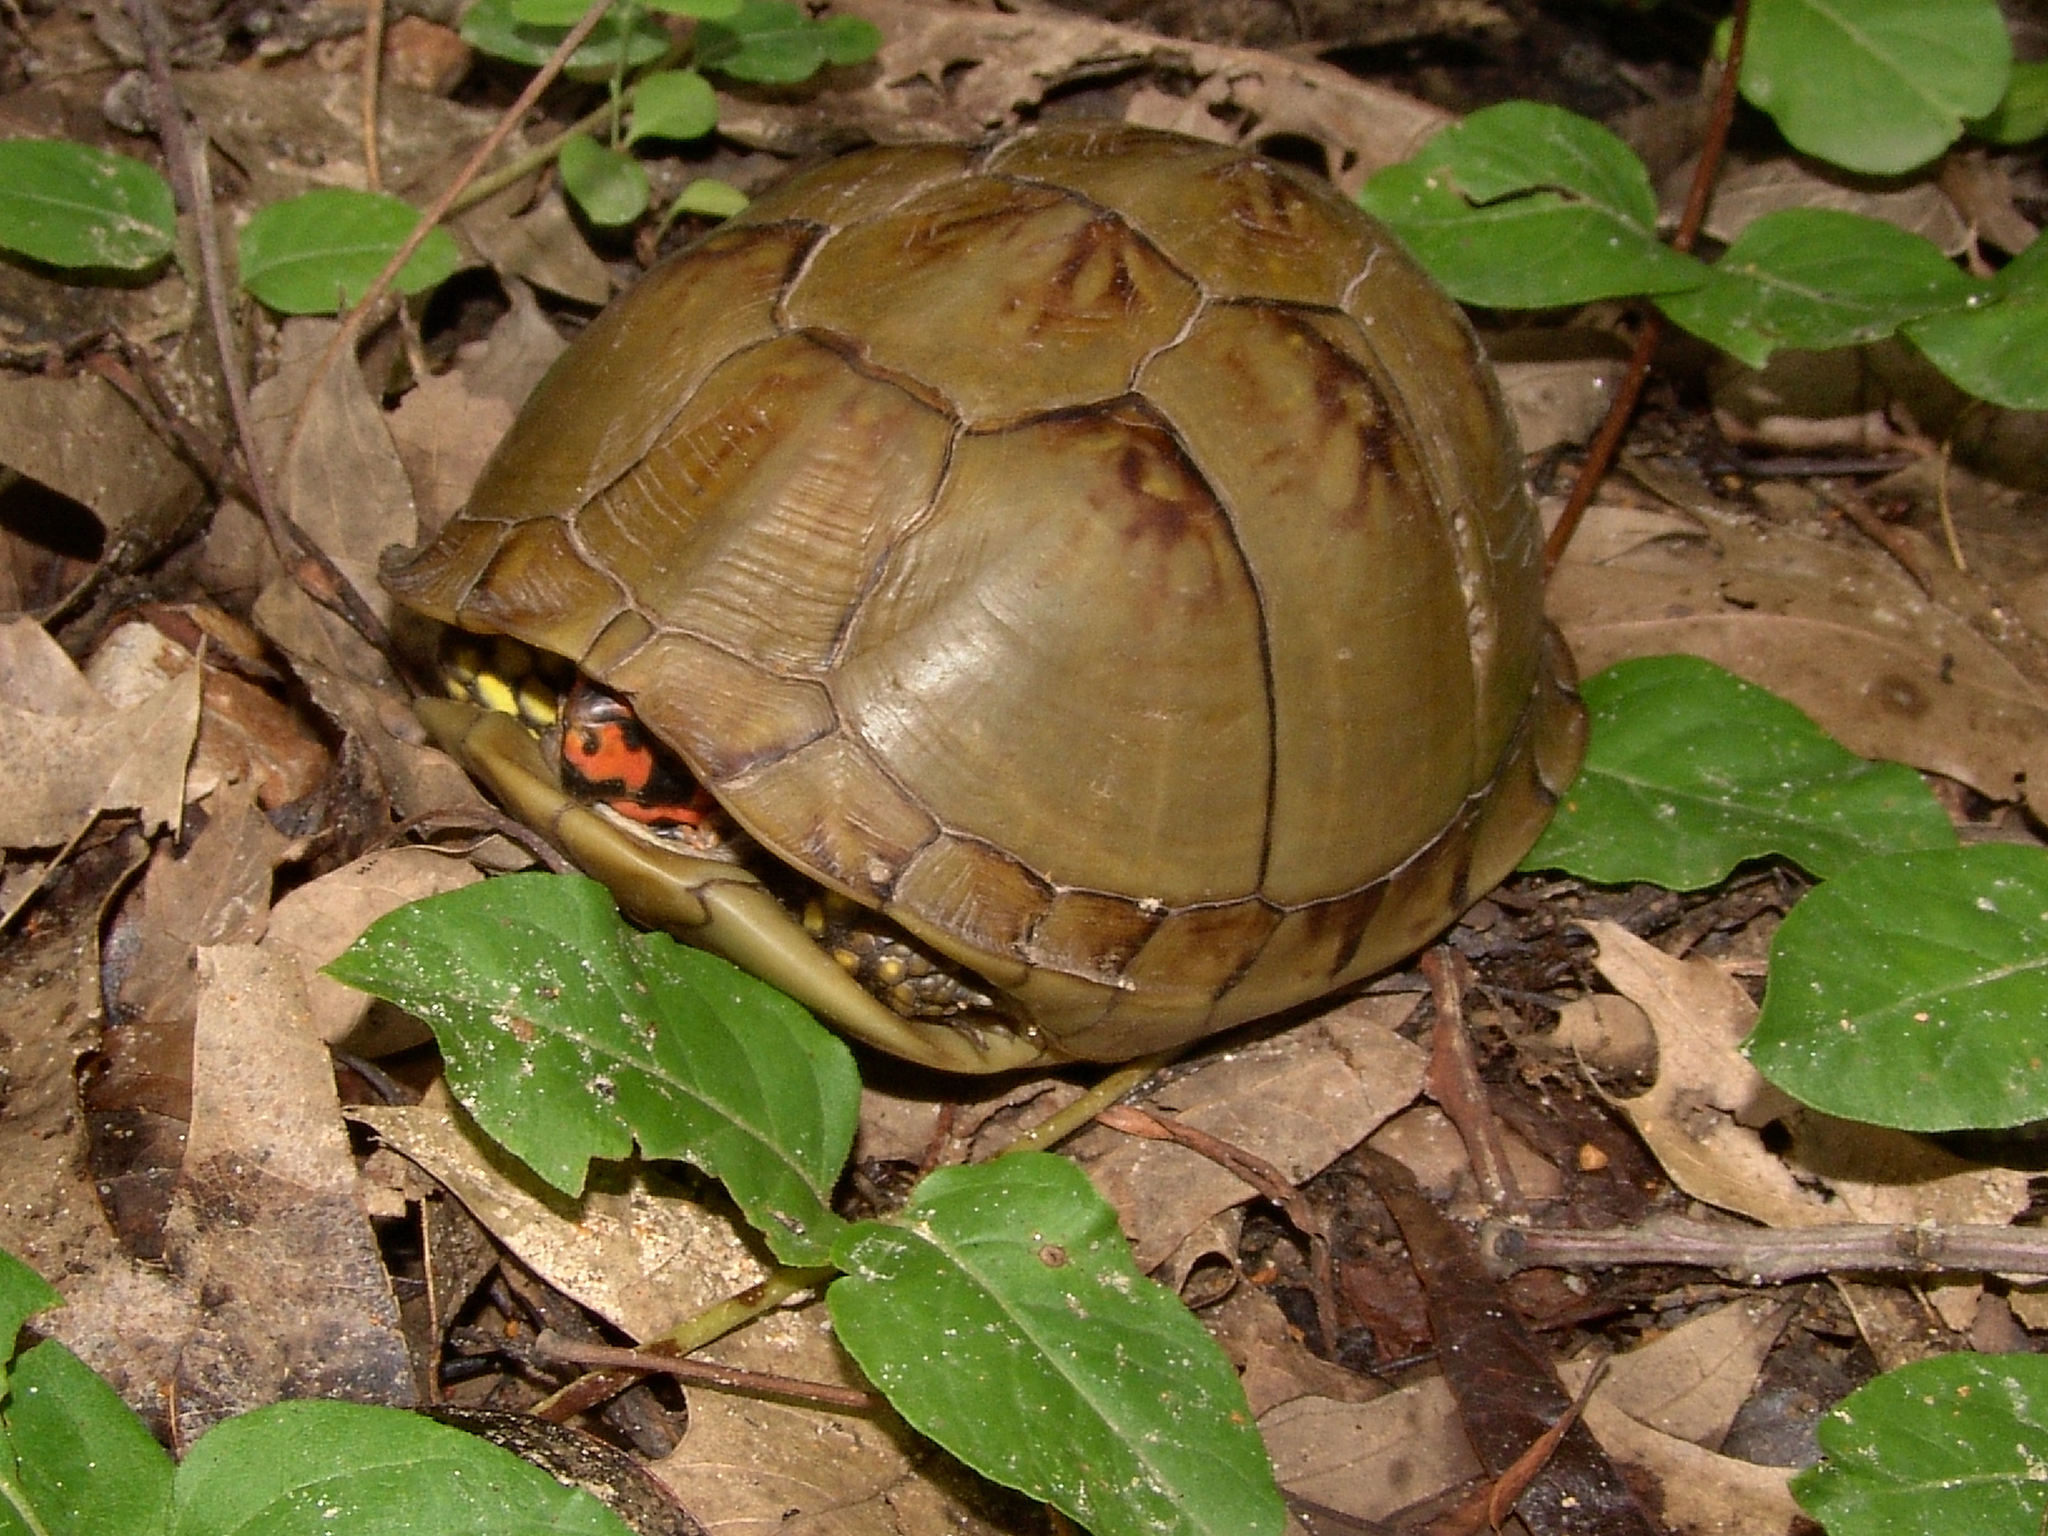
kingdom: Animalia
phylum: Chordata
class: Testudines
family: Emydidae
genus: Terrapene
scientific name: Terrapene carolina
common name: Common box turtle
